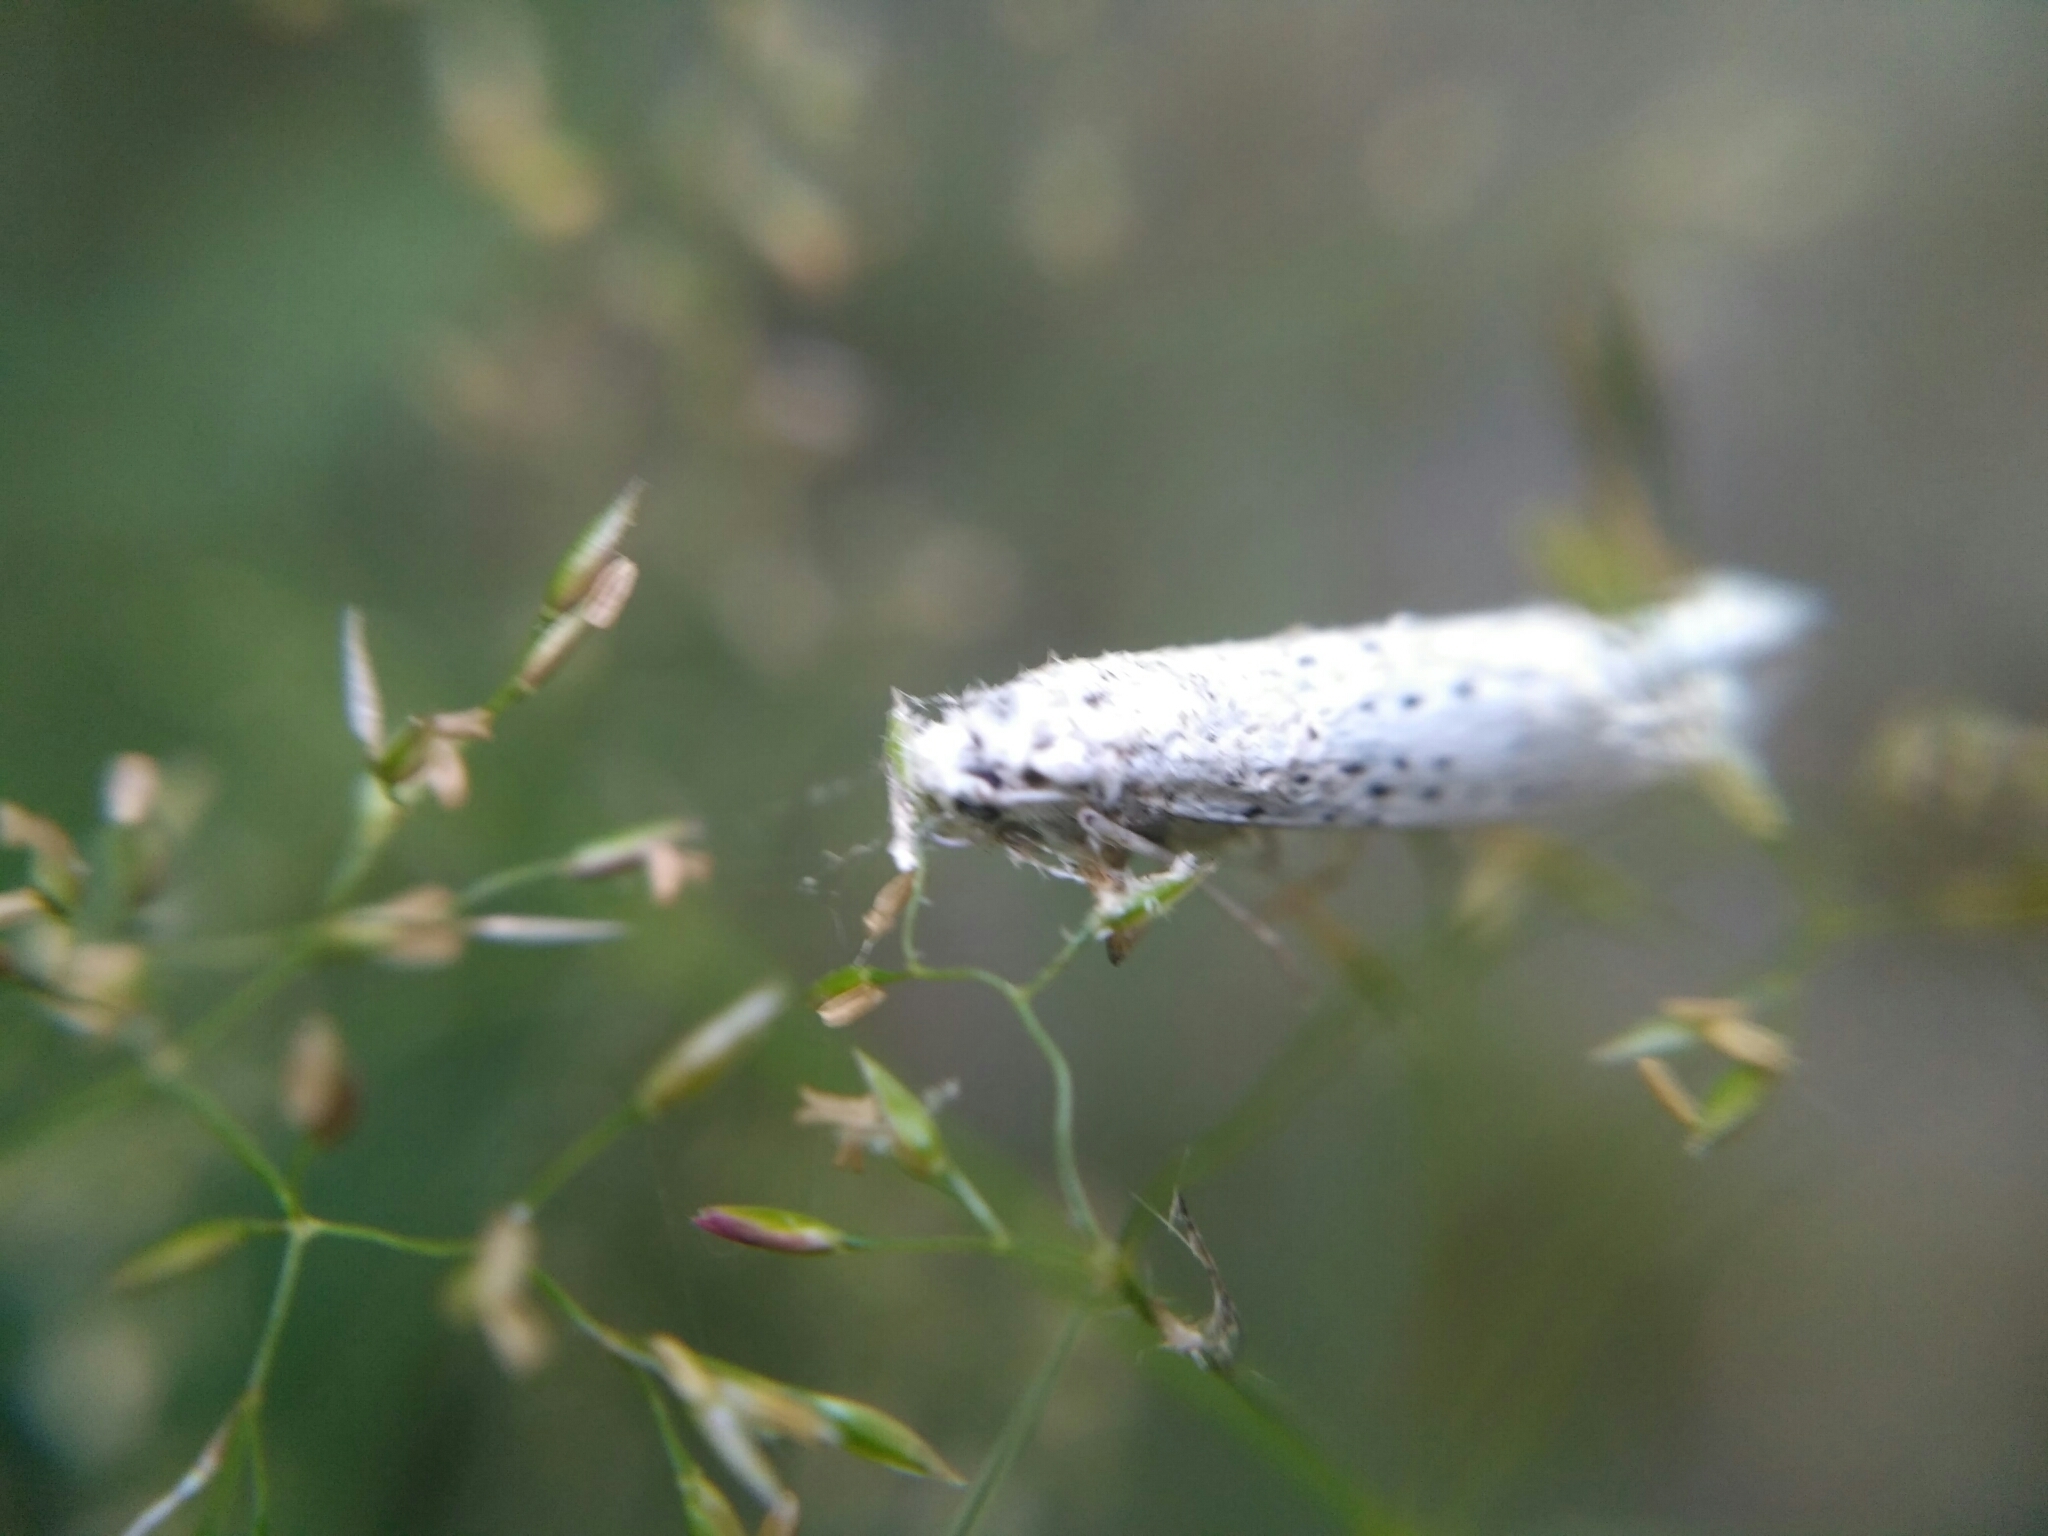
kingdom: Animalia
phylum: Arthropoda
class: Insecta
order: Lepidoptera
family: Yponomeutidae
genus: Yponomeuta
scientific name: Yponomeuta evonymella
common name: Bird-cherry ermine
